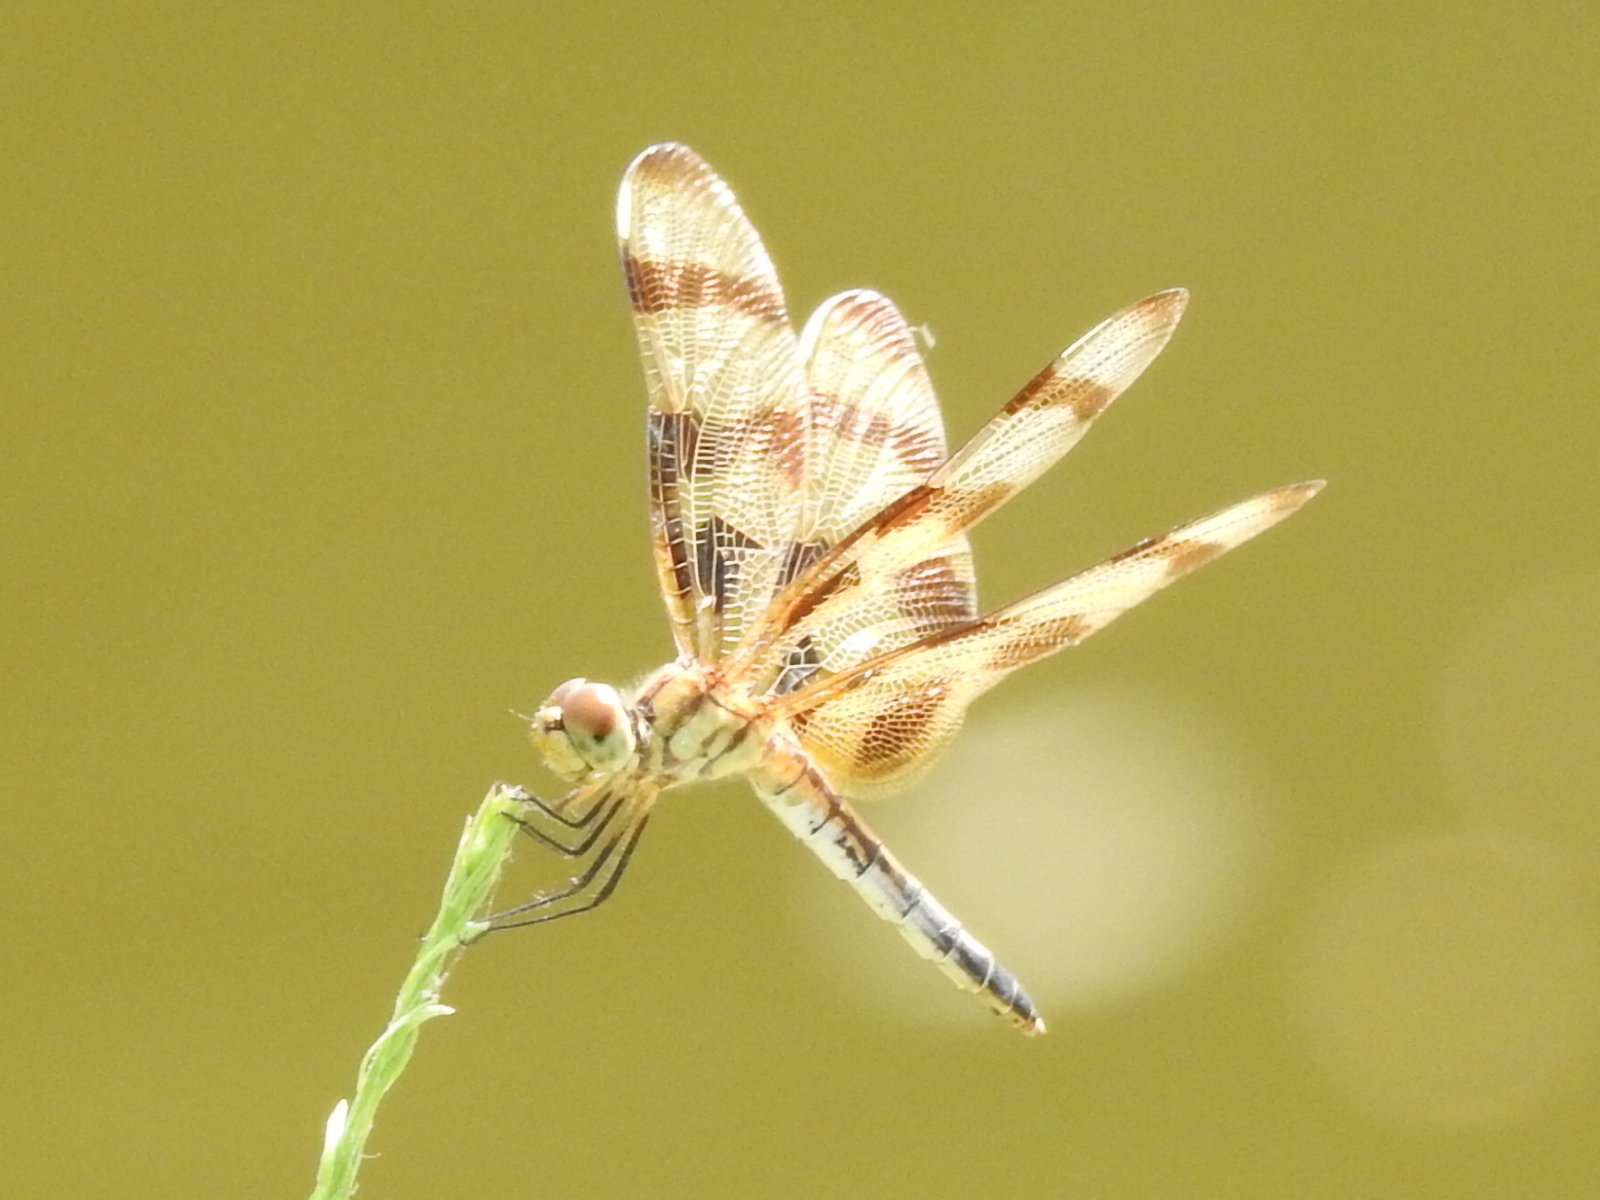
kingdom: Animalia
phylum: Arthropoda
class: Insecta
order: Odonata
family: Libellulidae
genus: Celithemis
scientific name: Celithemis eponina
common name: Halloween pennant
